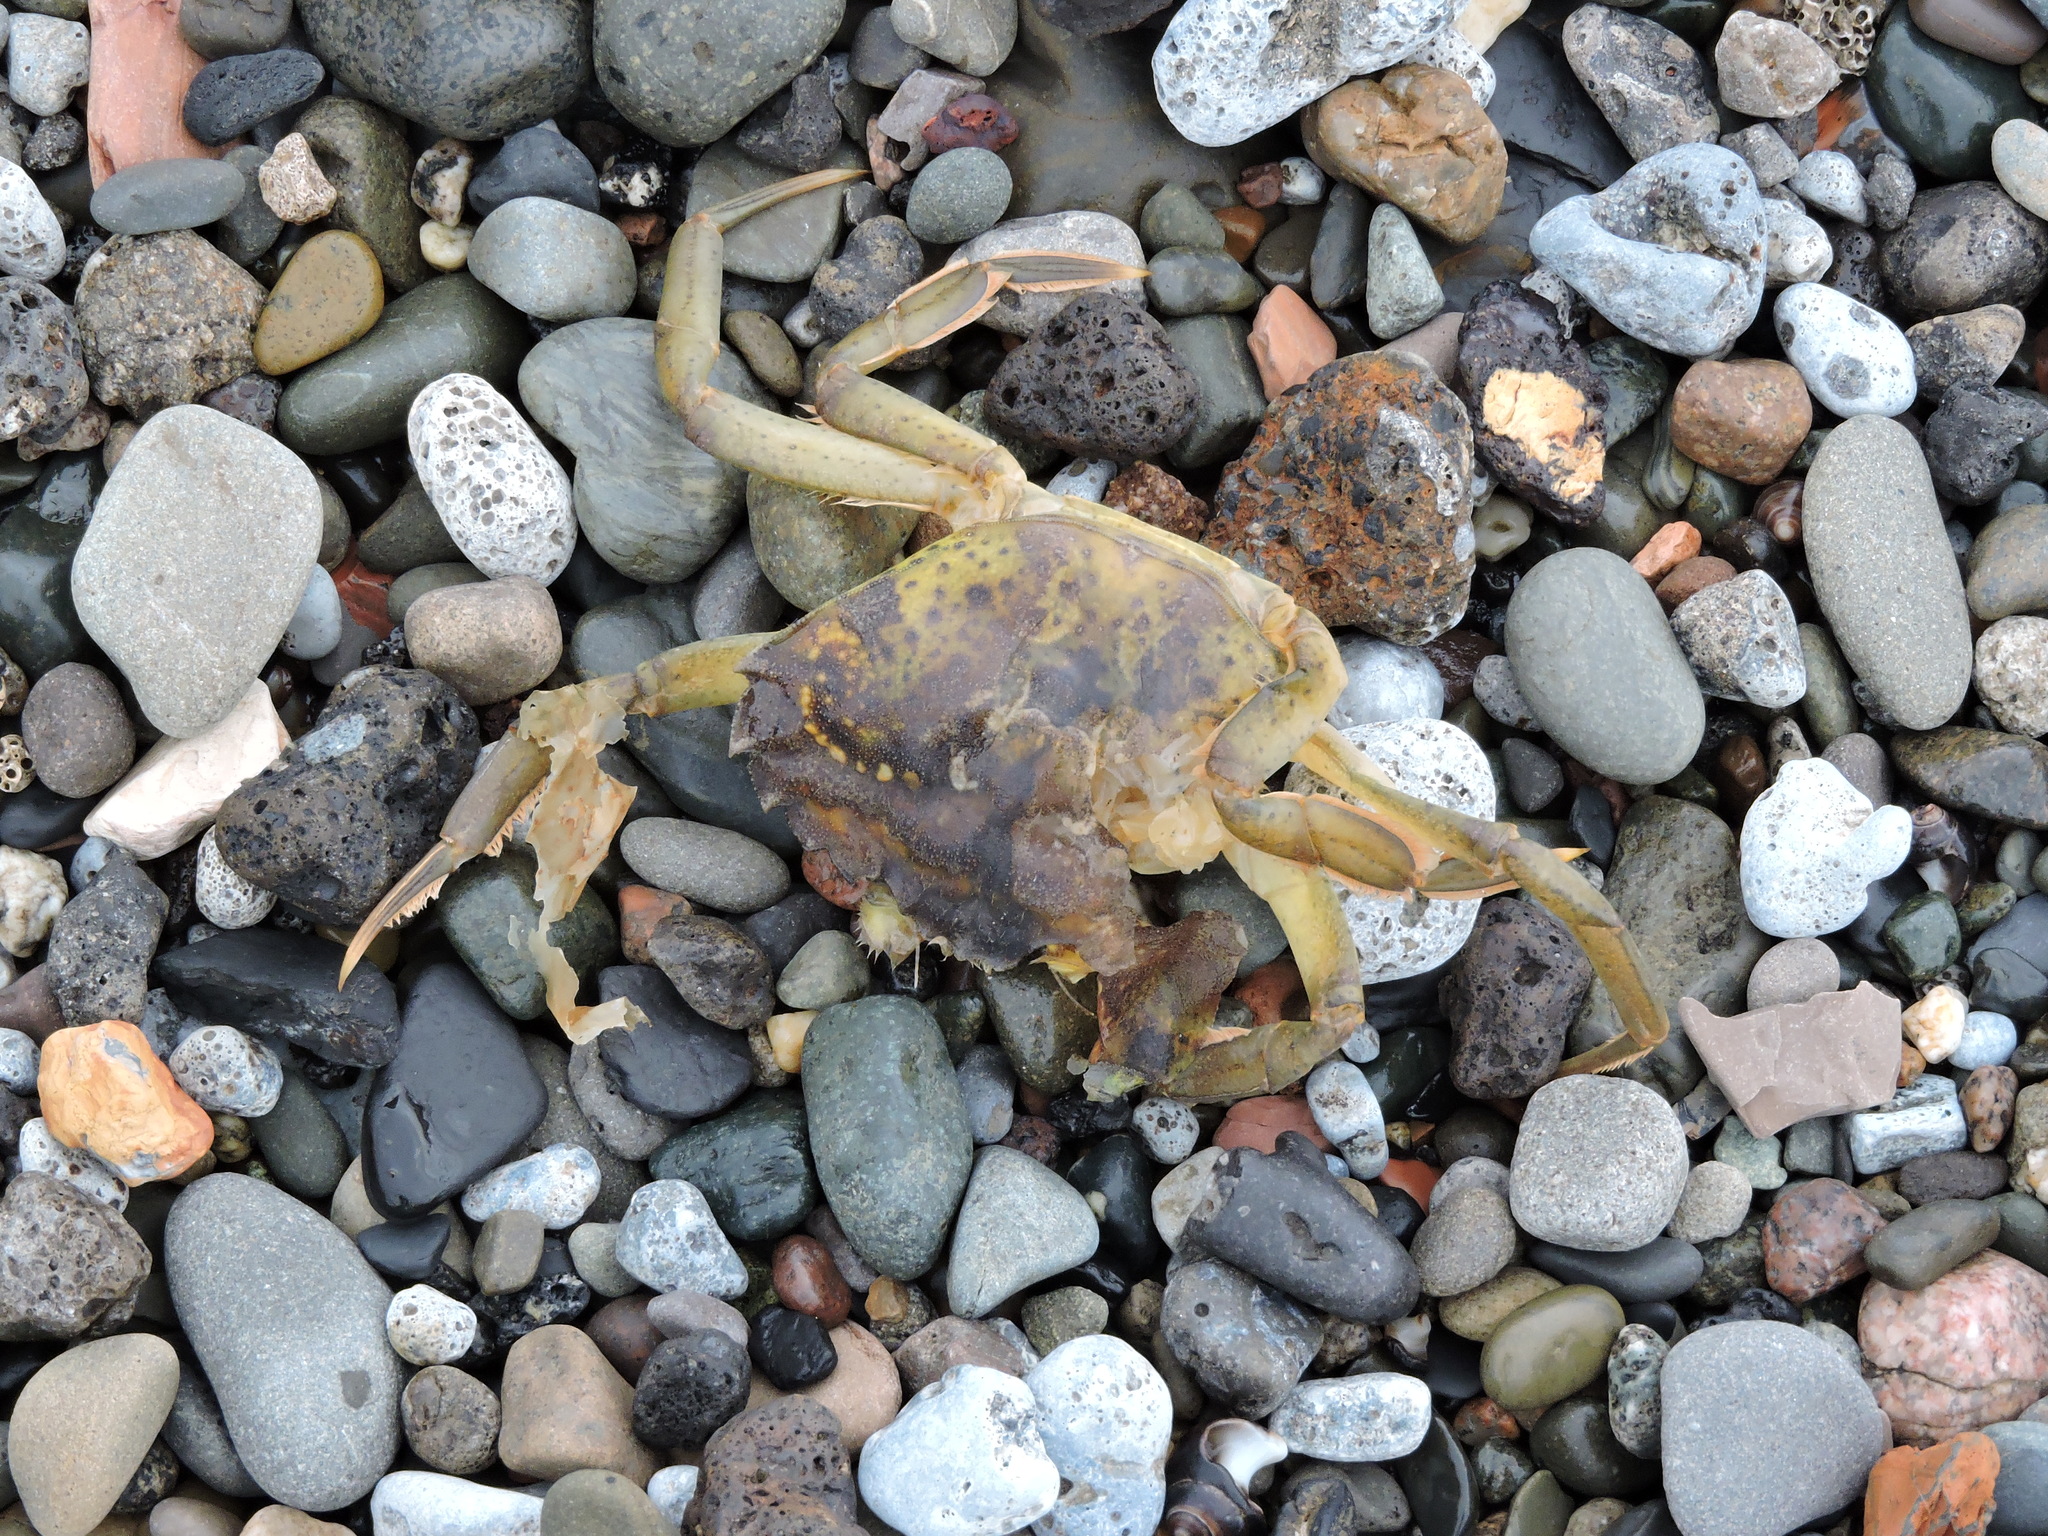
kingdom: Animalia
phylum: Arthropoda
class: Malacostraca
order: Decapoda
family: Carcinidae
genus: Carcinus
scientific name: Carcinus maenas
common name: European green crab
